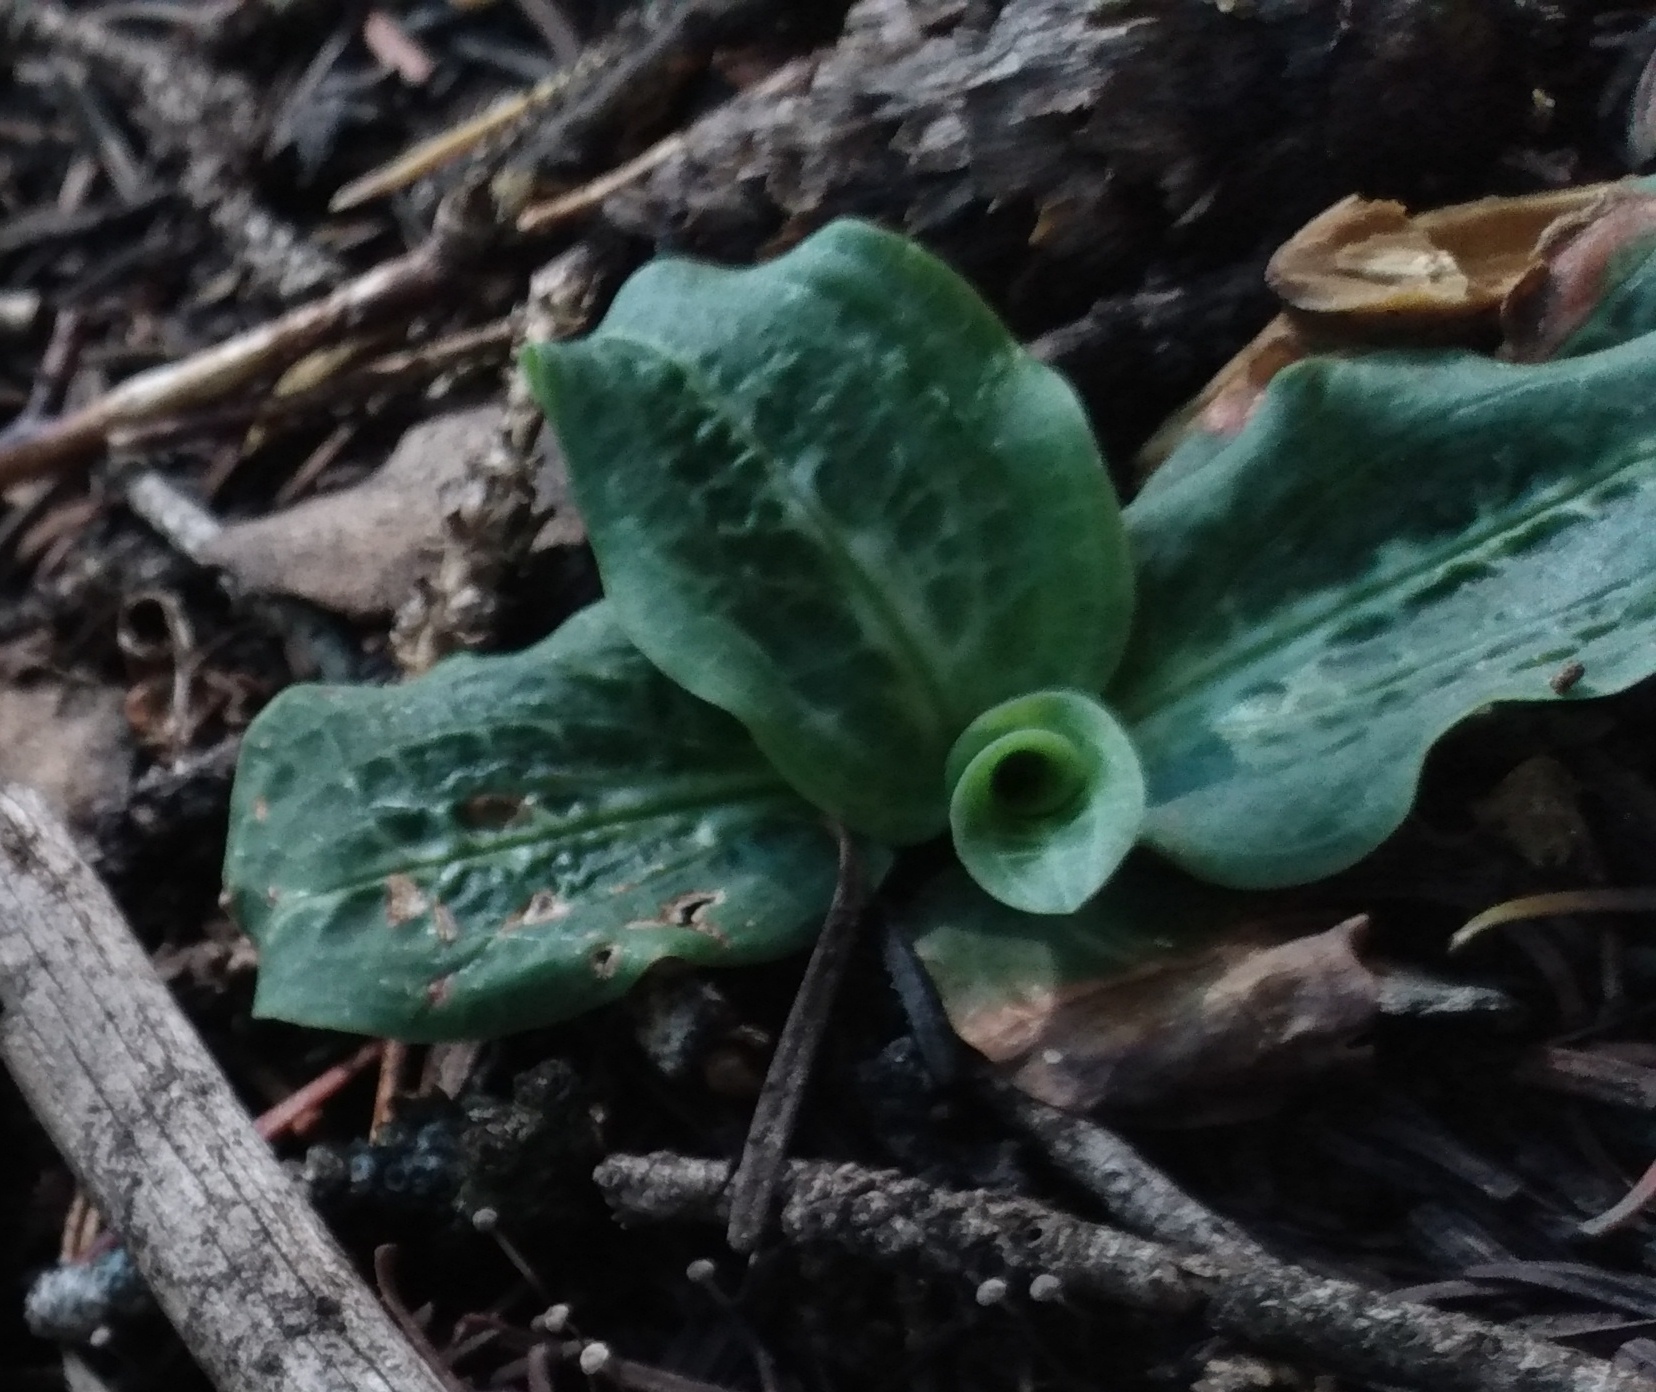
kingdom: Plantae
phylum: Tracheophyta
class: Liliopsida
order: Asparagales
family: Orchidaceae
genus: Goodyera
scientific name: Goodyera oblongifolia
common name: Giant rattlesnake-plantain
